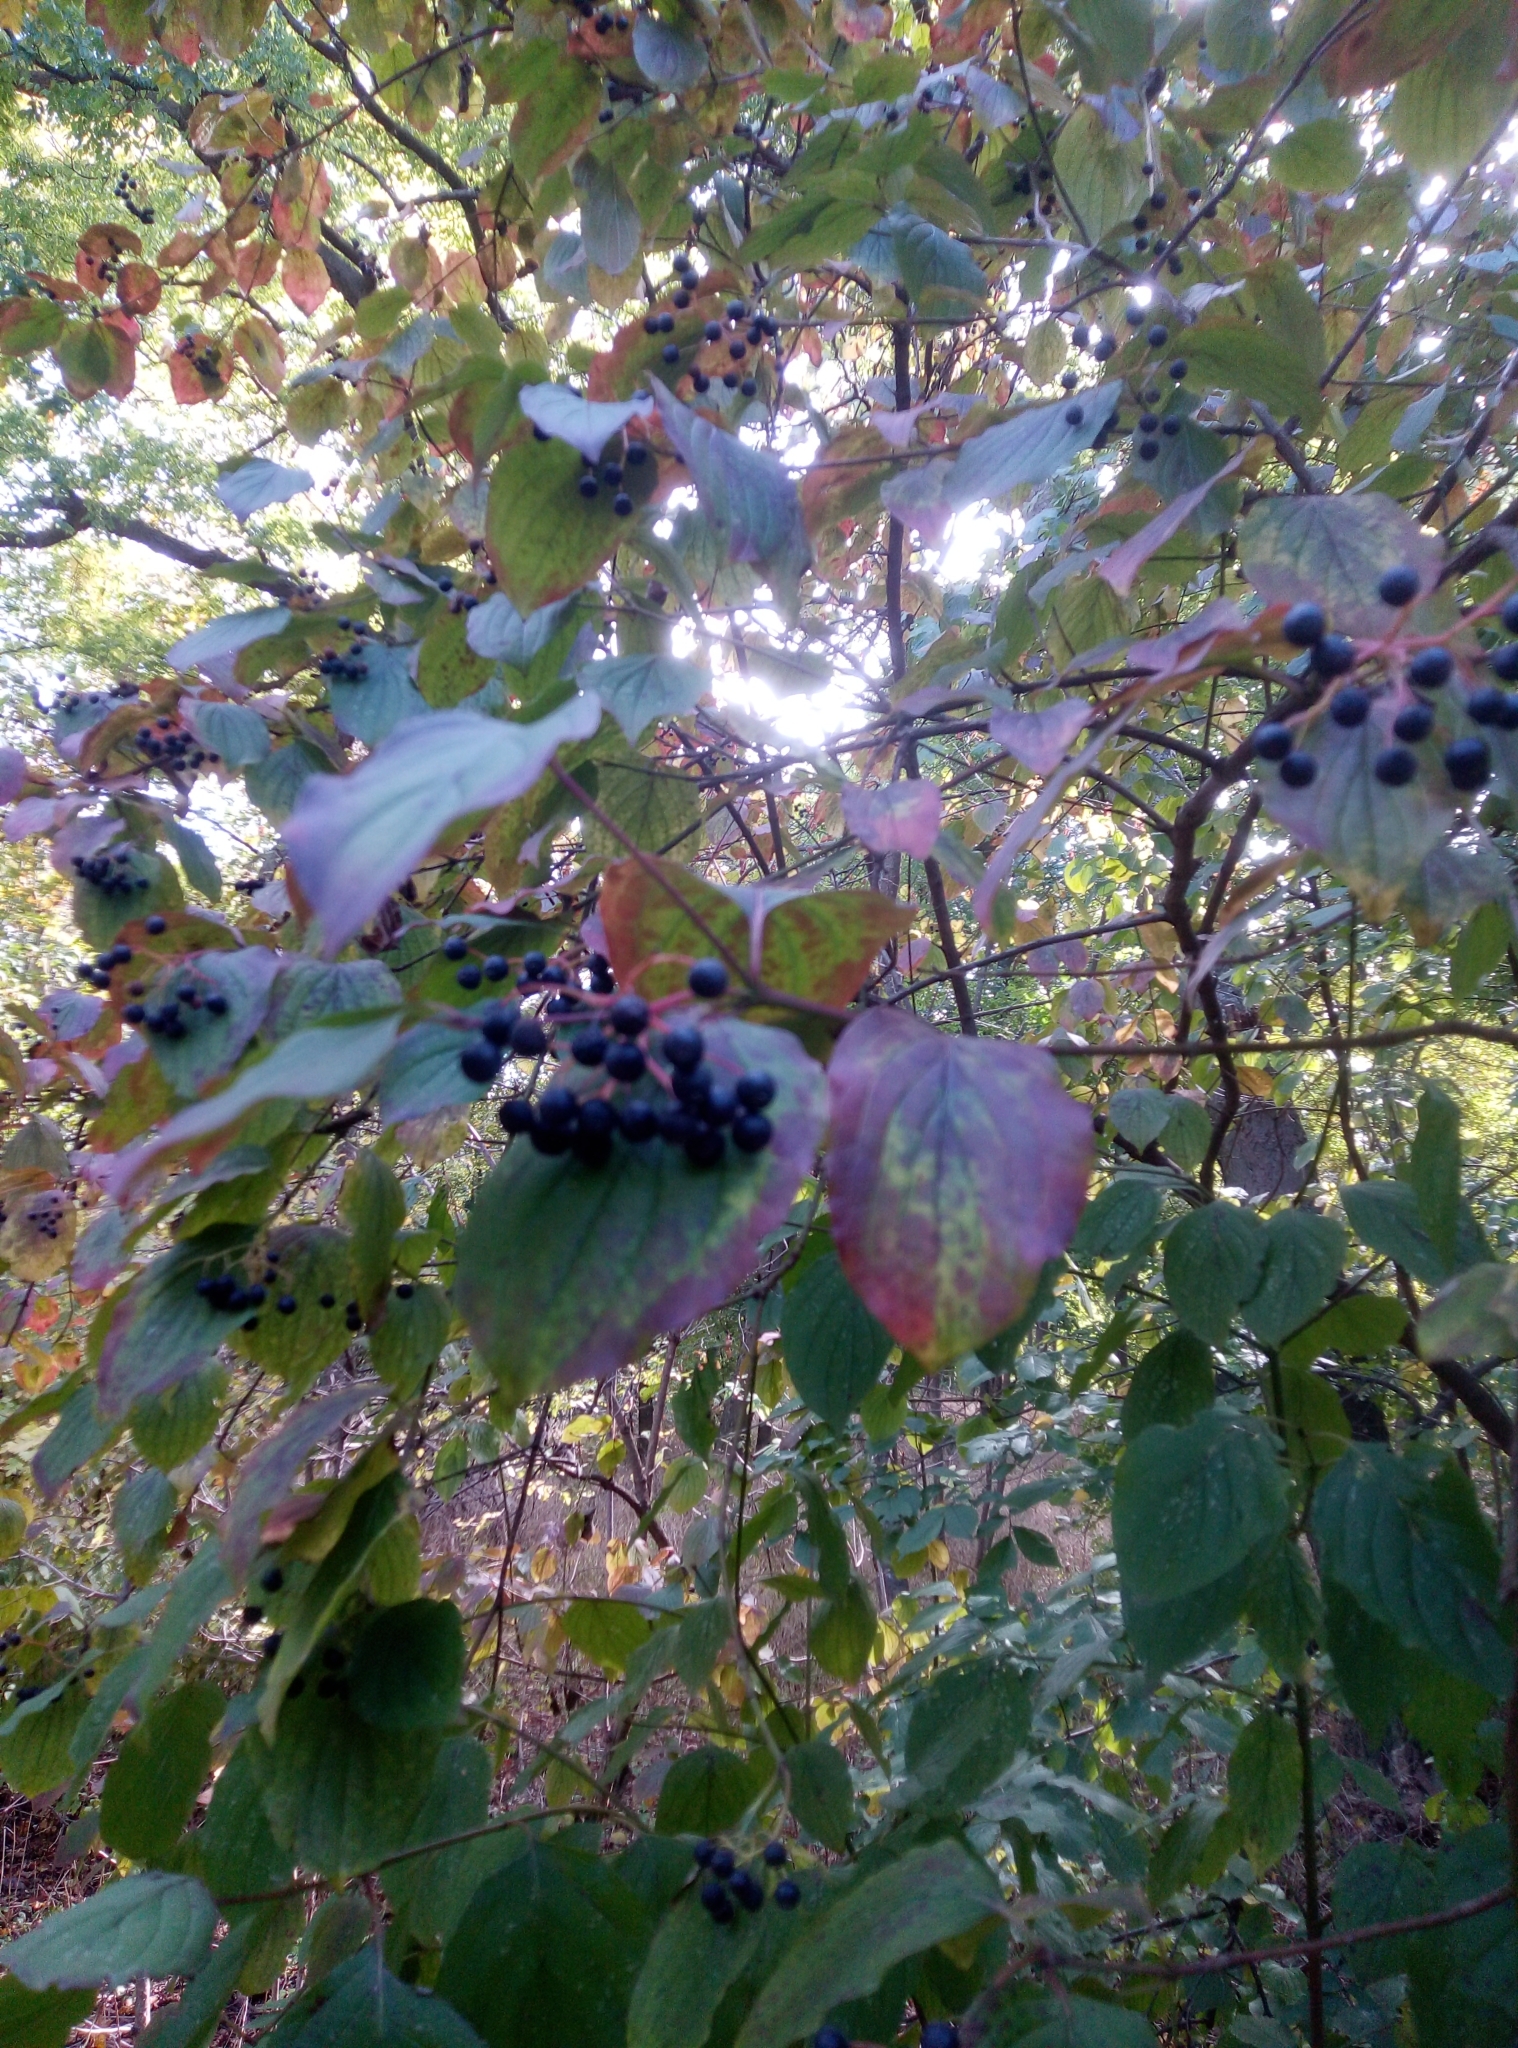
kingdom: Plantae
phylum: Tracheophyta
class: Magnoliopsida
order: Cornales
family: Cornaceae
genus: Cornus
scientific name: Cornus sanguinea
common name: Dogwood
